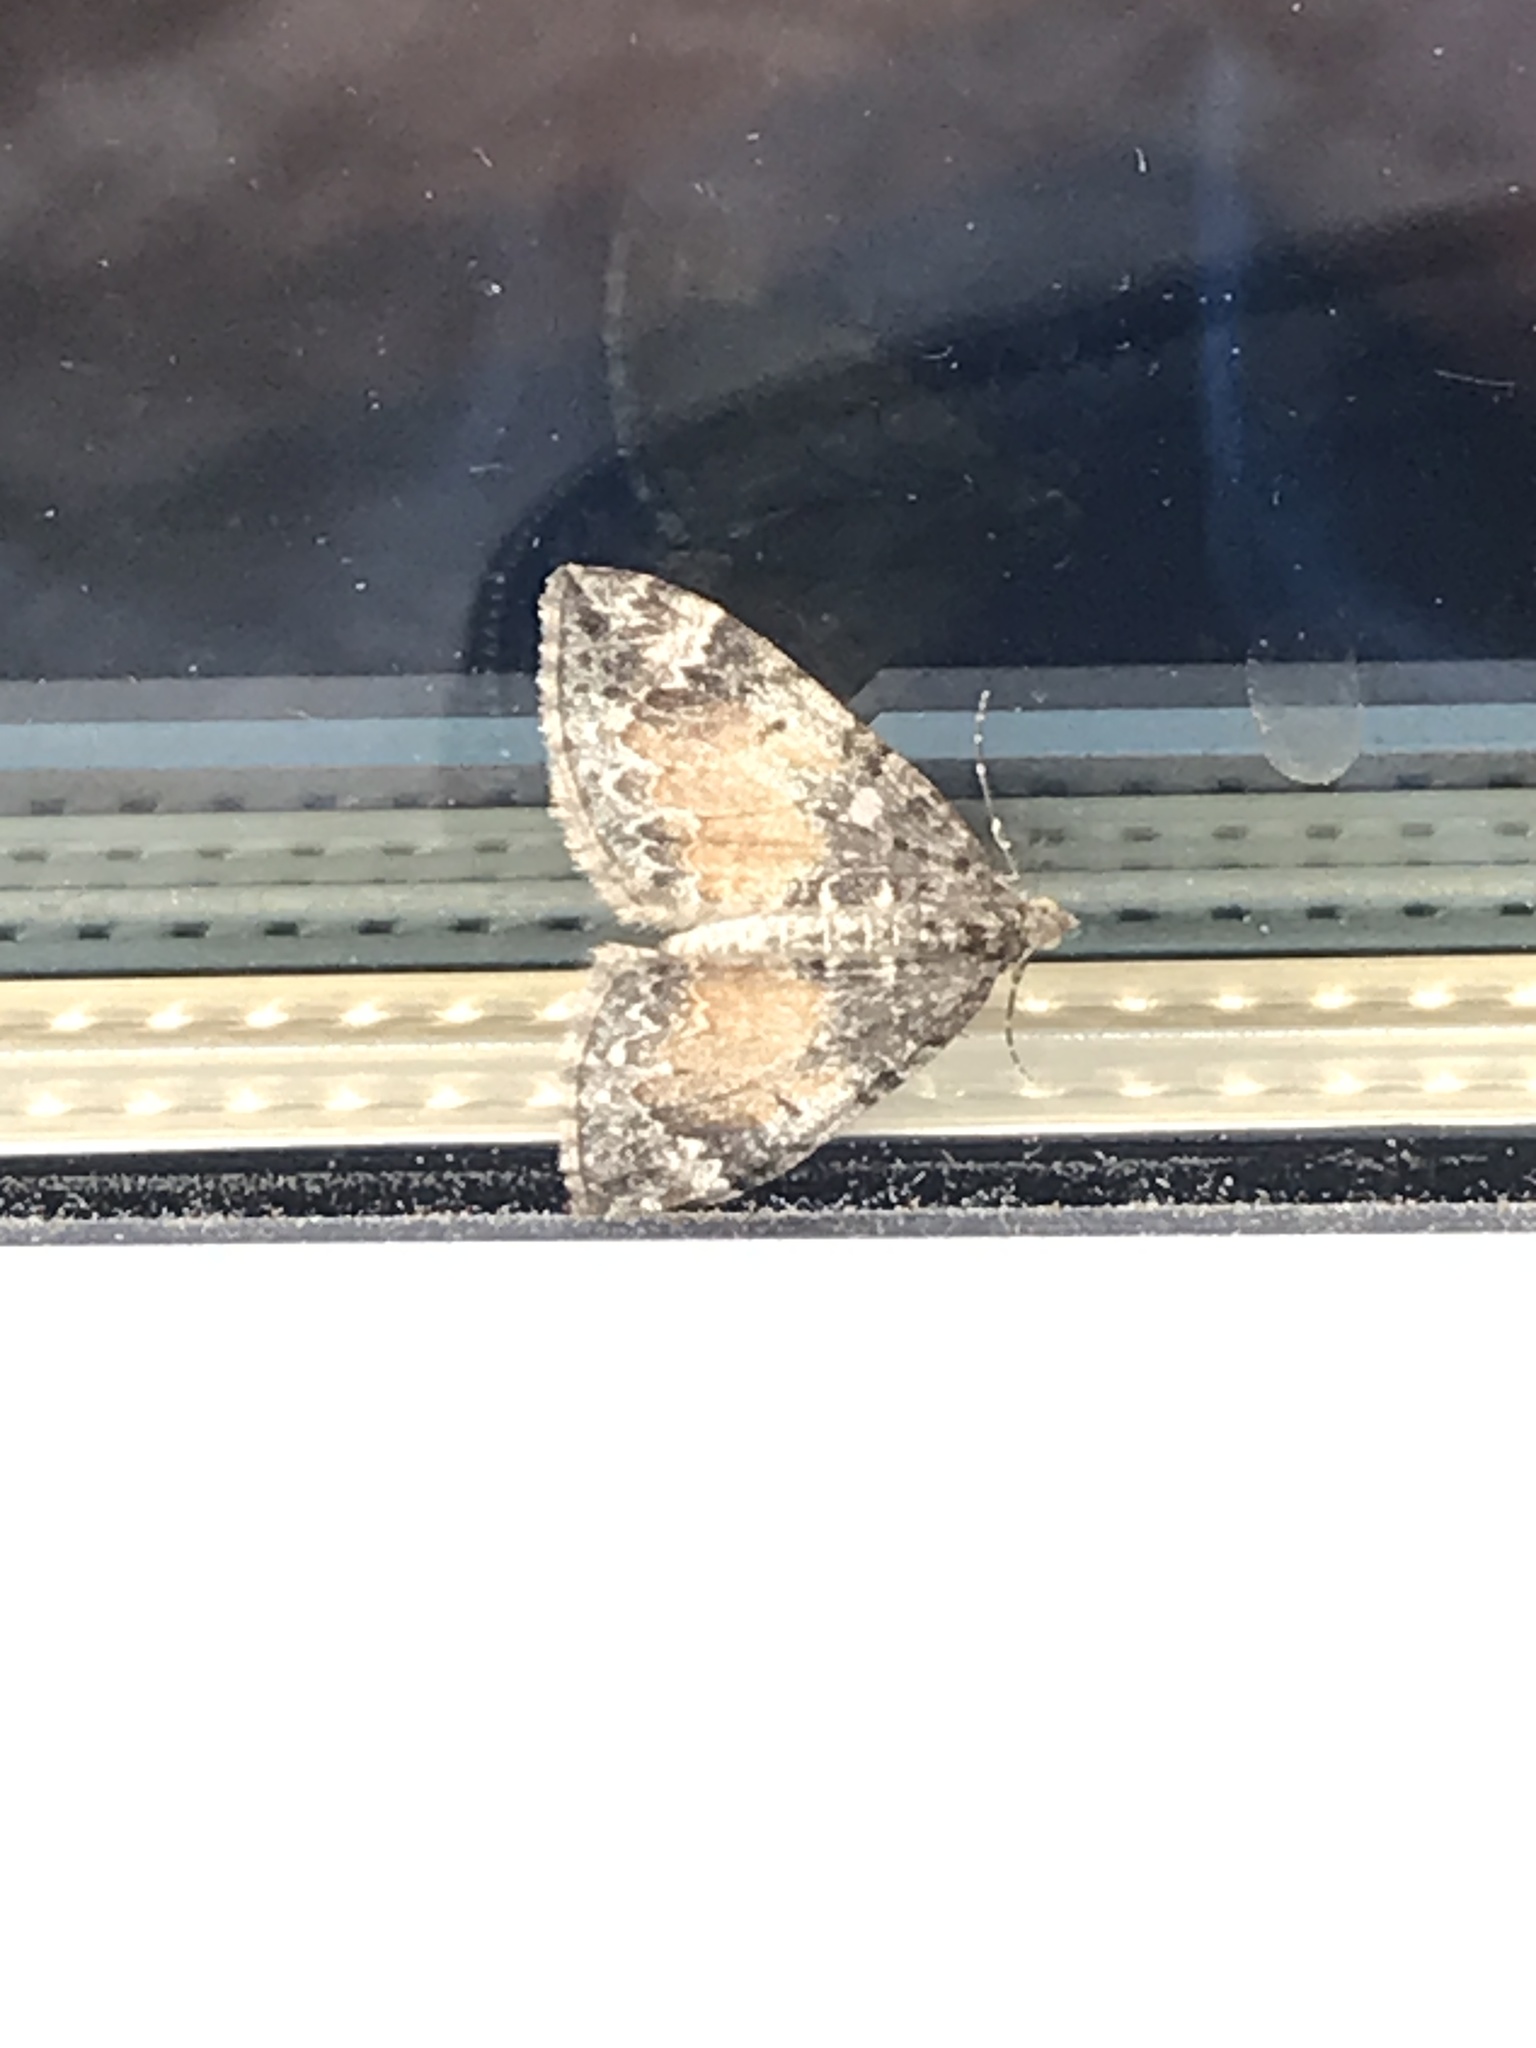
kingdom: Animalia
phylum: Arthropoda
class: Insecta
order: Lepidoptera
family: Geometridae
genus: Dysstroma
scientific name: Dysstroma truncata
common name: Common marbled carpet
